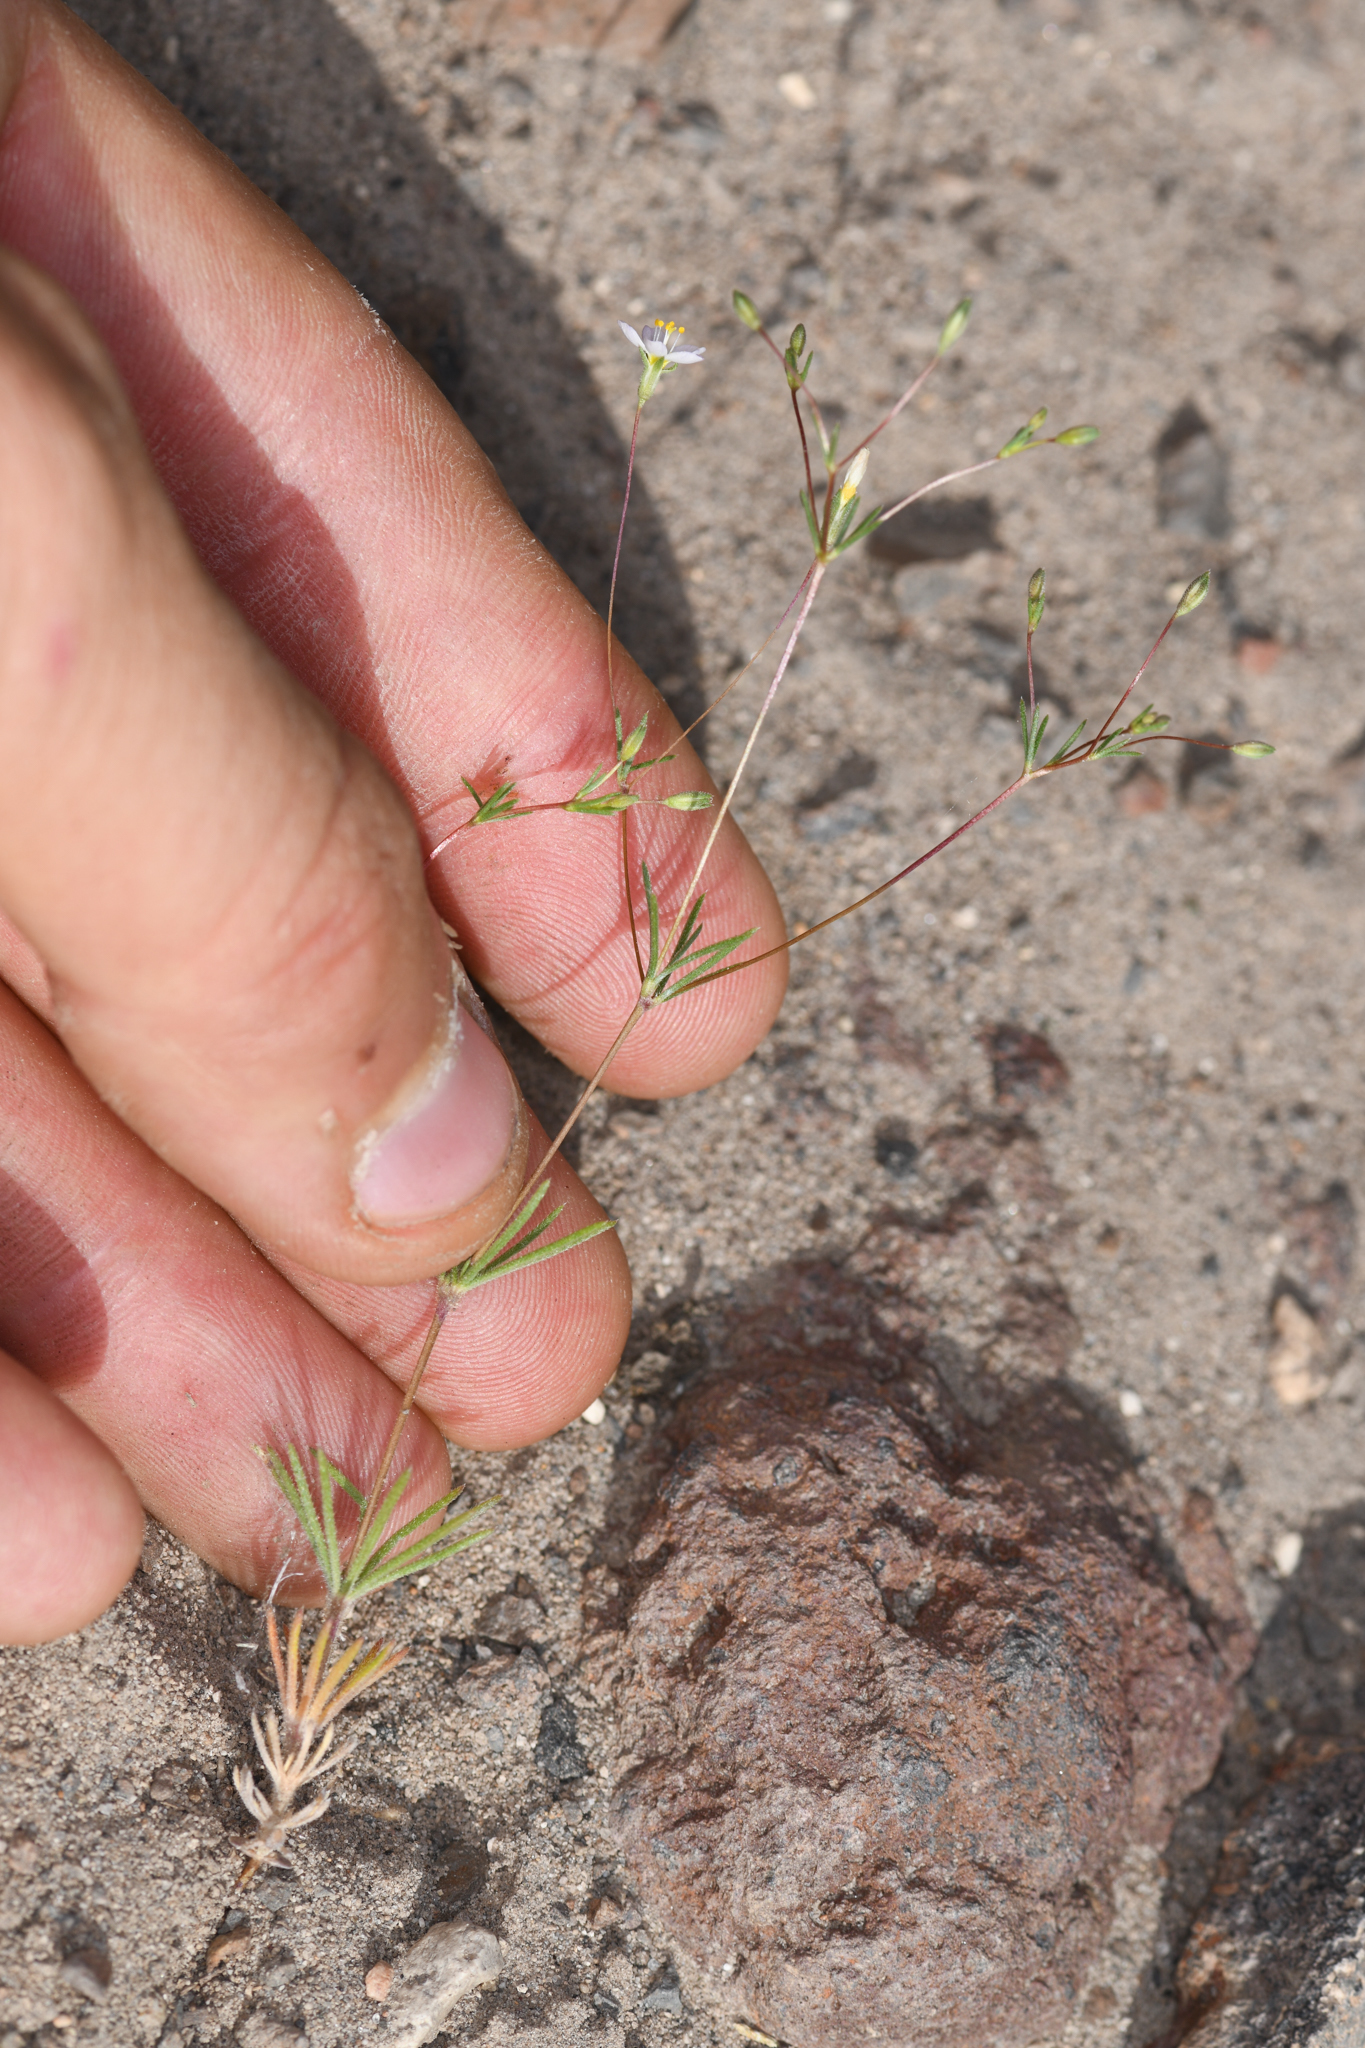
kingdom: Plantae
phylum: Tracheophyta
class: Magnoliopsida
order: Ericales
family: Polemoniaceae
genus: Leptosiphon
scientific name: Leptosiphon septentrionalis
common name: Northern linanthus
